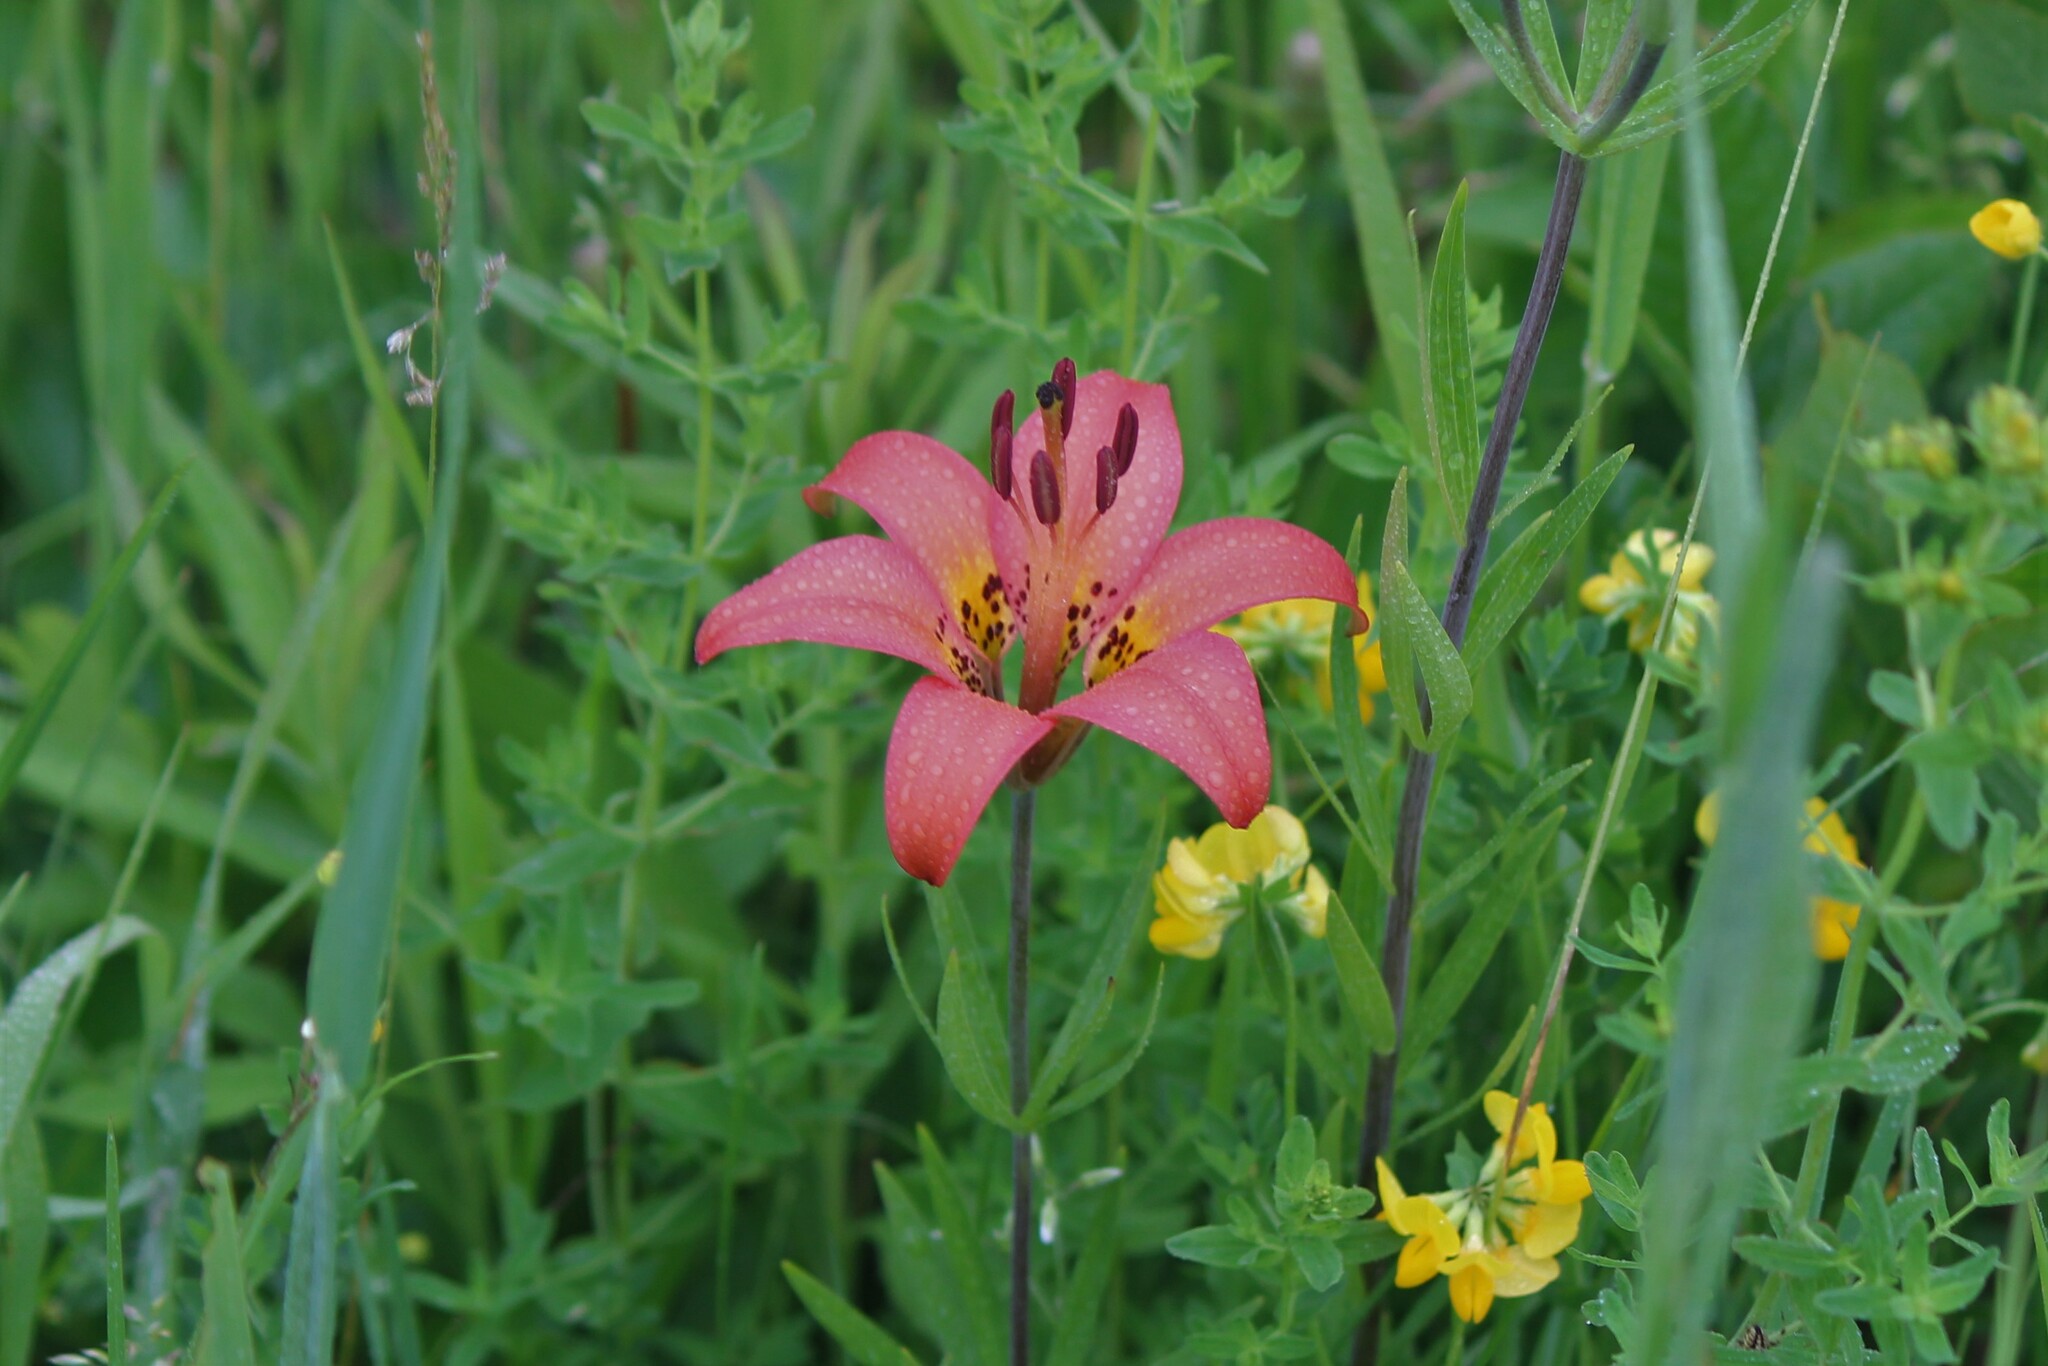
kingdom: Plantae
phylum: Tracheophyta
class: Liliopsida
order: Liliales
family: Liliaceae
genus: Lilium
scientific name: Lilium philadelphicum
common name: Red lily
